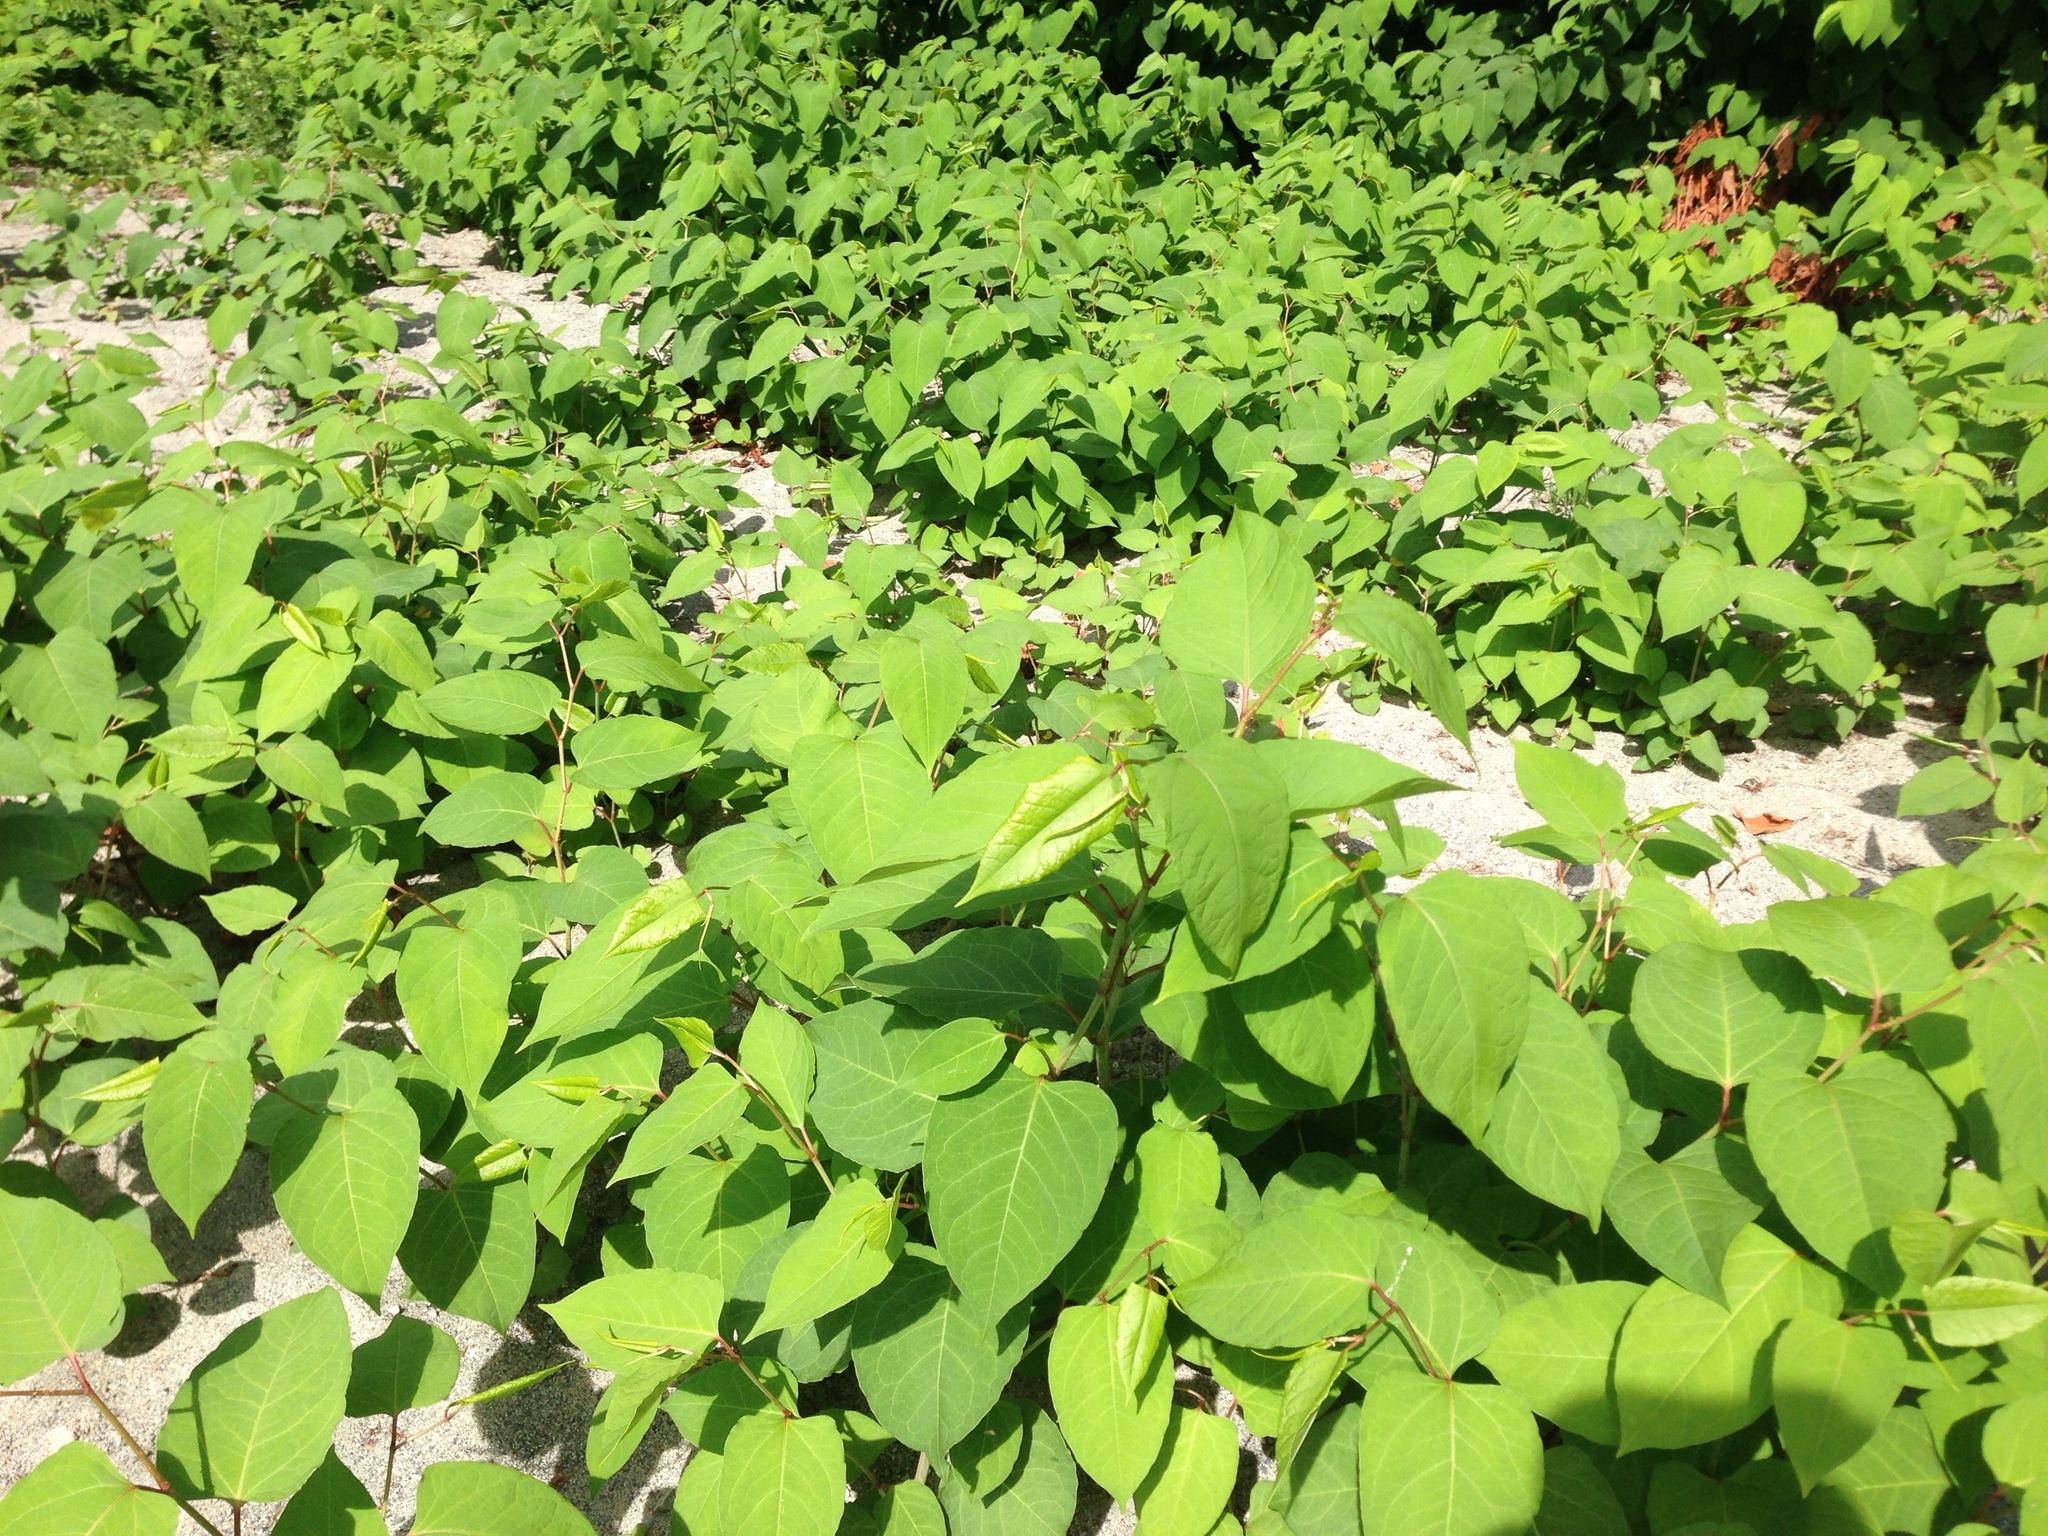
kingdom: Plantae
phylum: Tracheophyta
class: Magnoliopsida
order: Caryophyllales
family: Polygonaceae
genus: Reynoutria
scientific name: Reynoutria japonica
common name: Japanese knotweed
